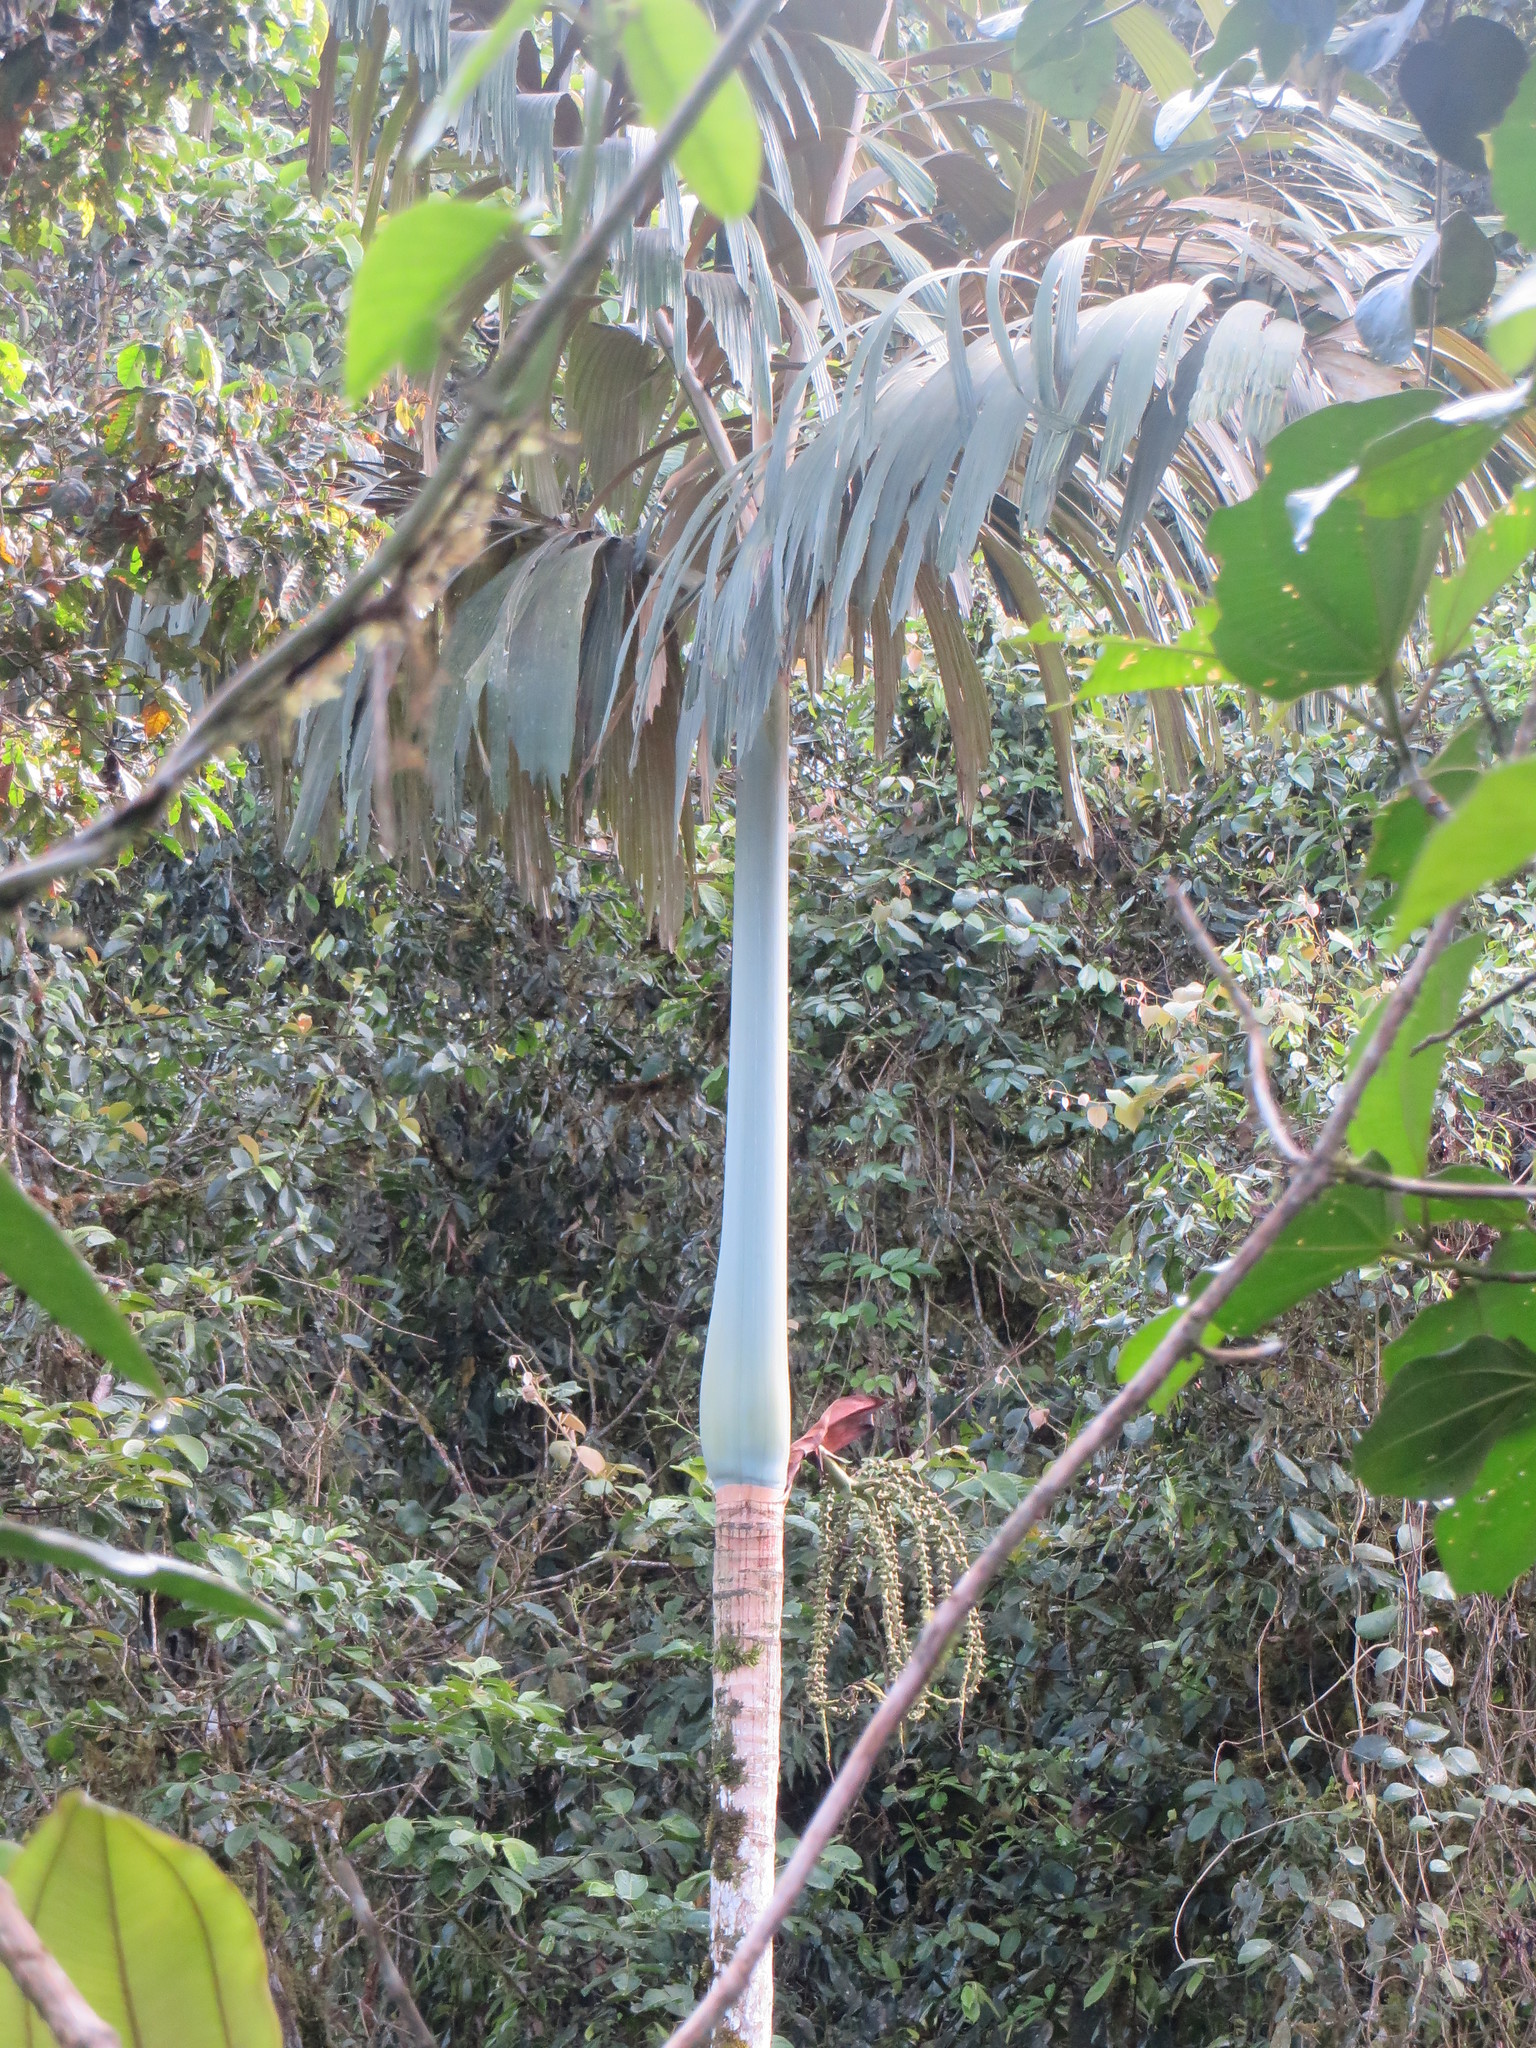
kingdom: Plantae
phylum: Tracheophyta
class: Liliopsida
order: Arecales
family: Arecaceae
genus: Socratea
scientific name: Socratea hecatonandra
